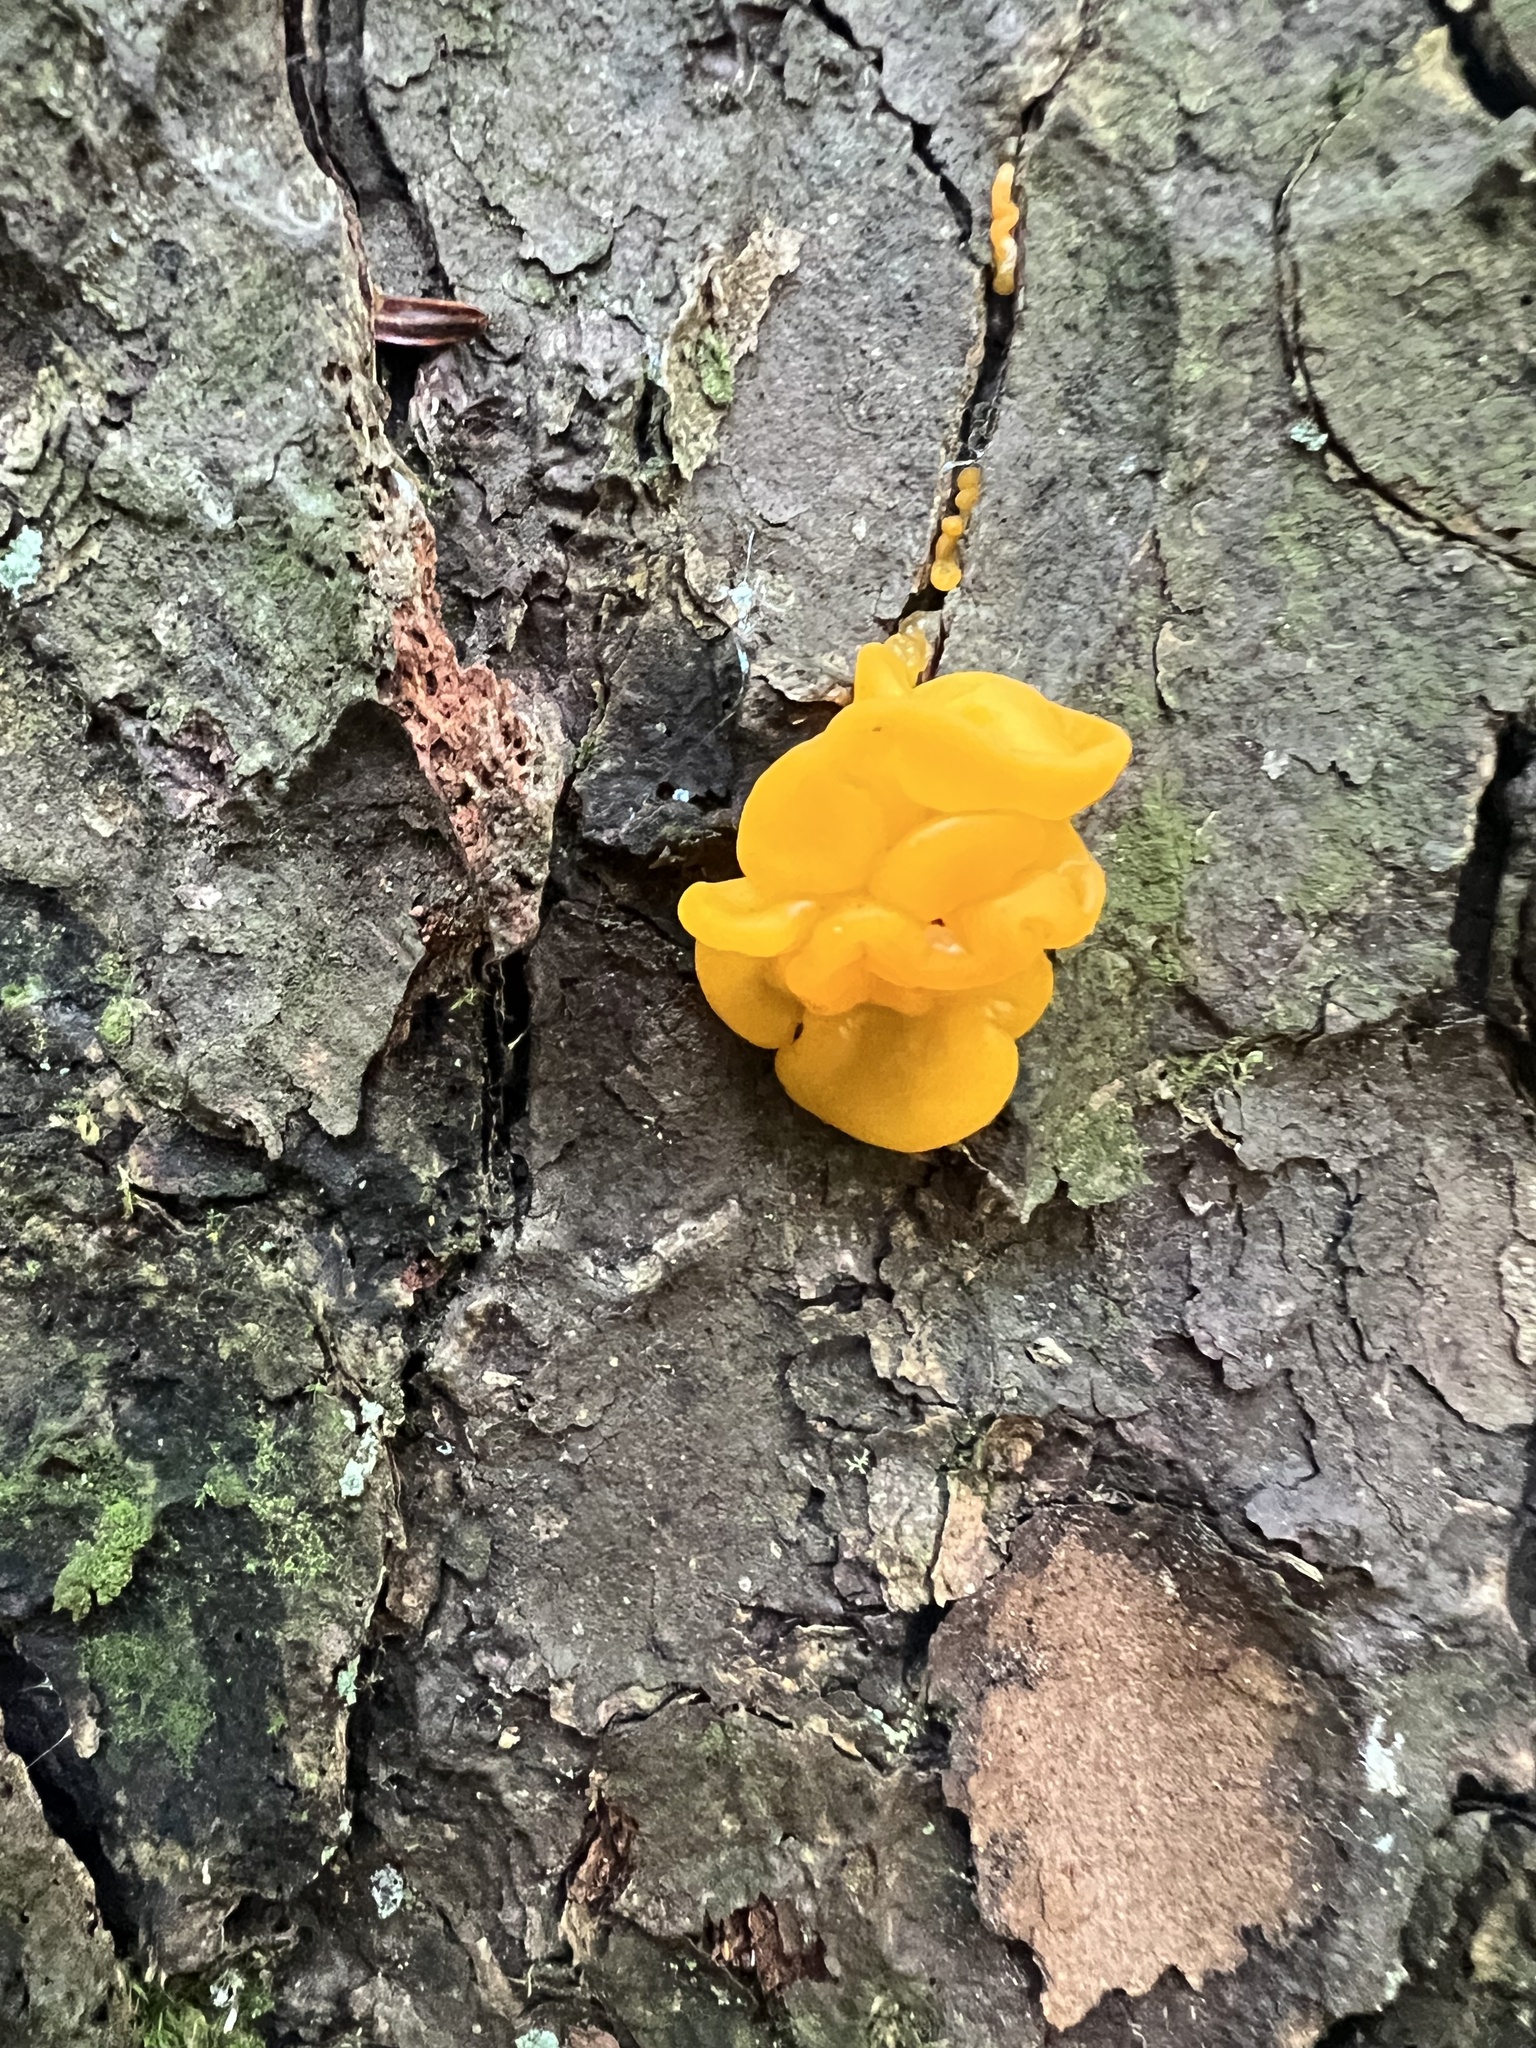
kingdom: Fungi
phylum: Basidiomycota
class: Dacrymycetes
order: Dacrymycetales
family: Dacrymycetaceae
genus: Dacrymyces
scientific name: Dacrymyces chrysospermus
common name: Orange jelly spot
